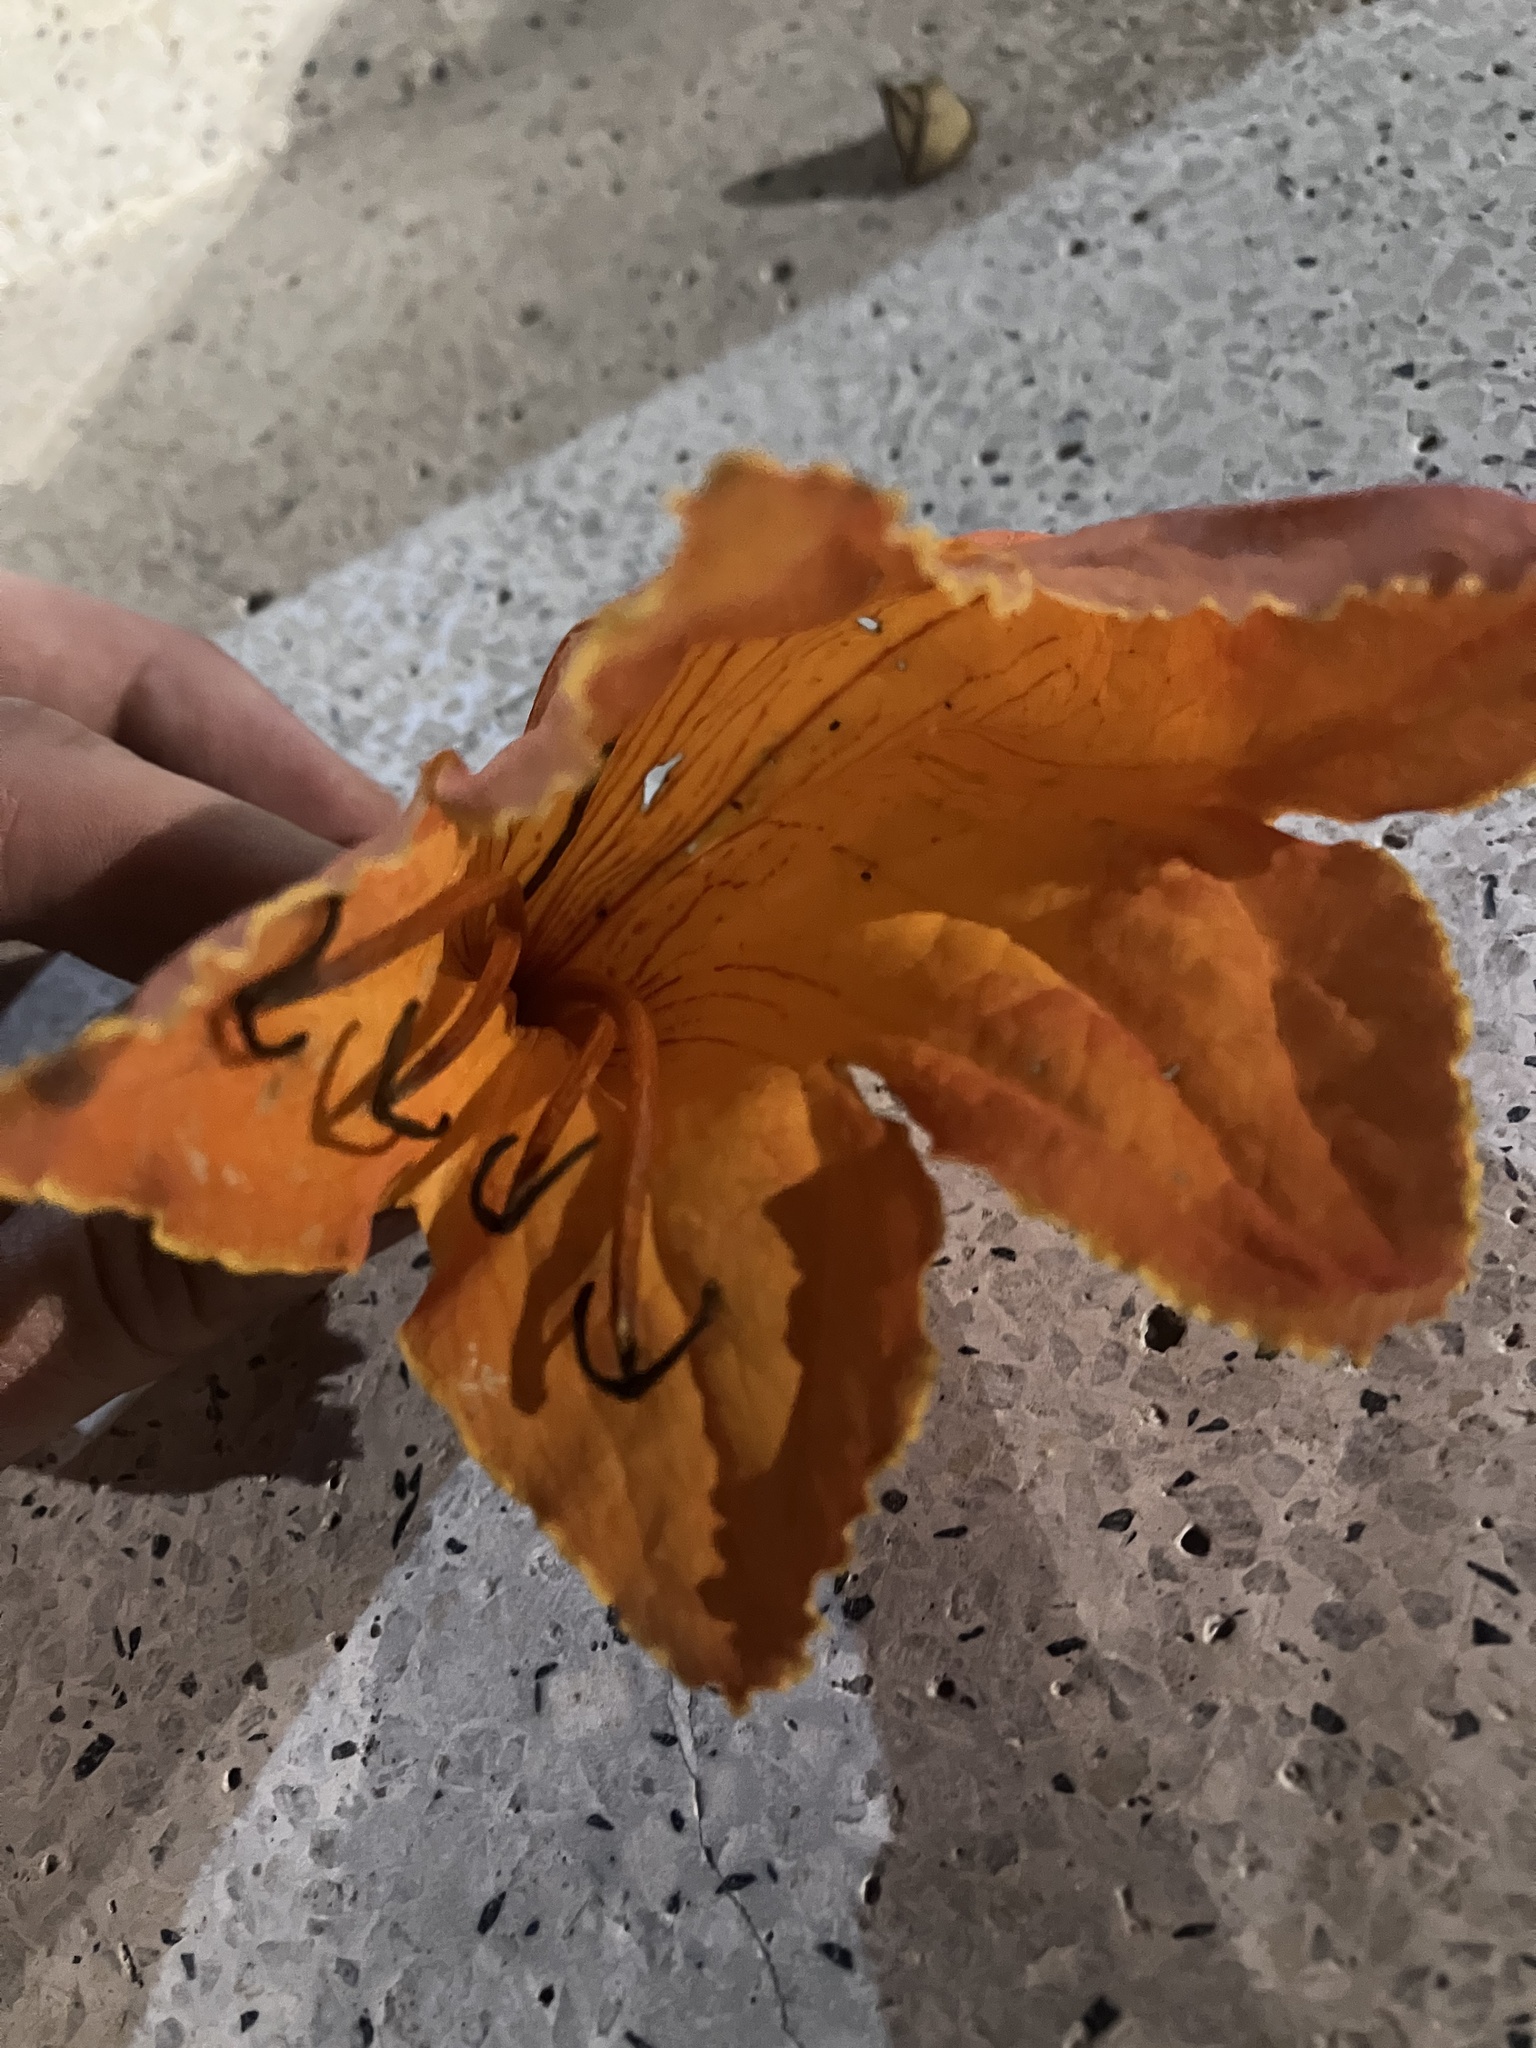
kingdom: Plantae
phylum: Tracheophyta
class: Magnoliopsida
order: Lamiales
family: Bignoniaceae
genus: Spathodea
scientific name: Spathodea campanulata
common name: African tuliptree
